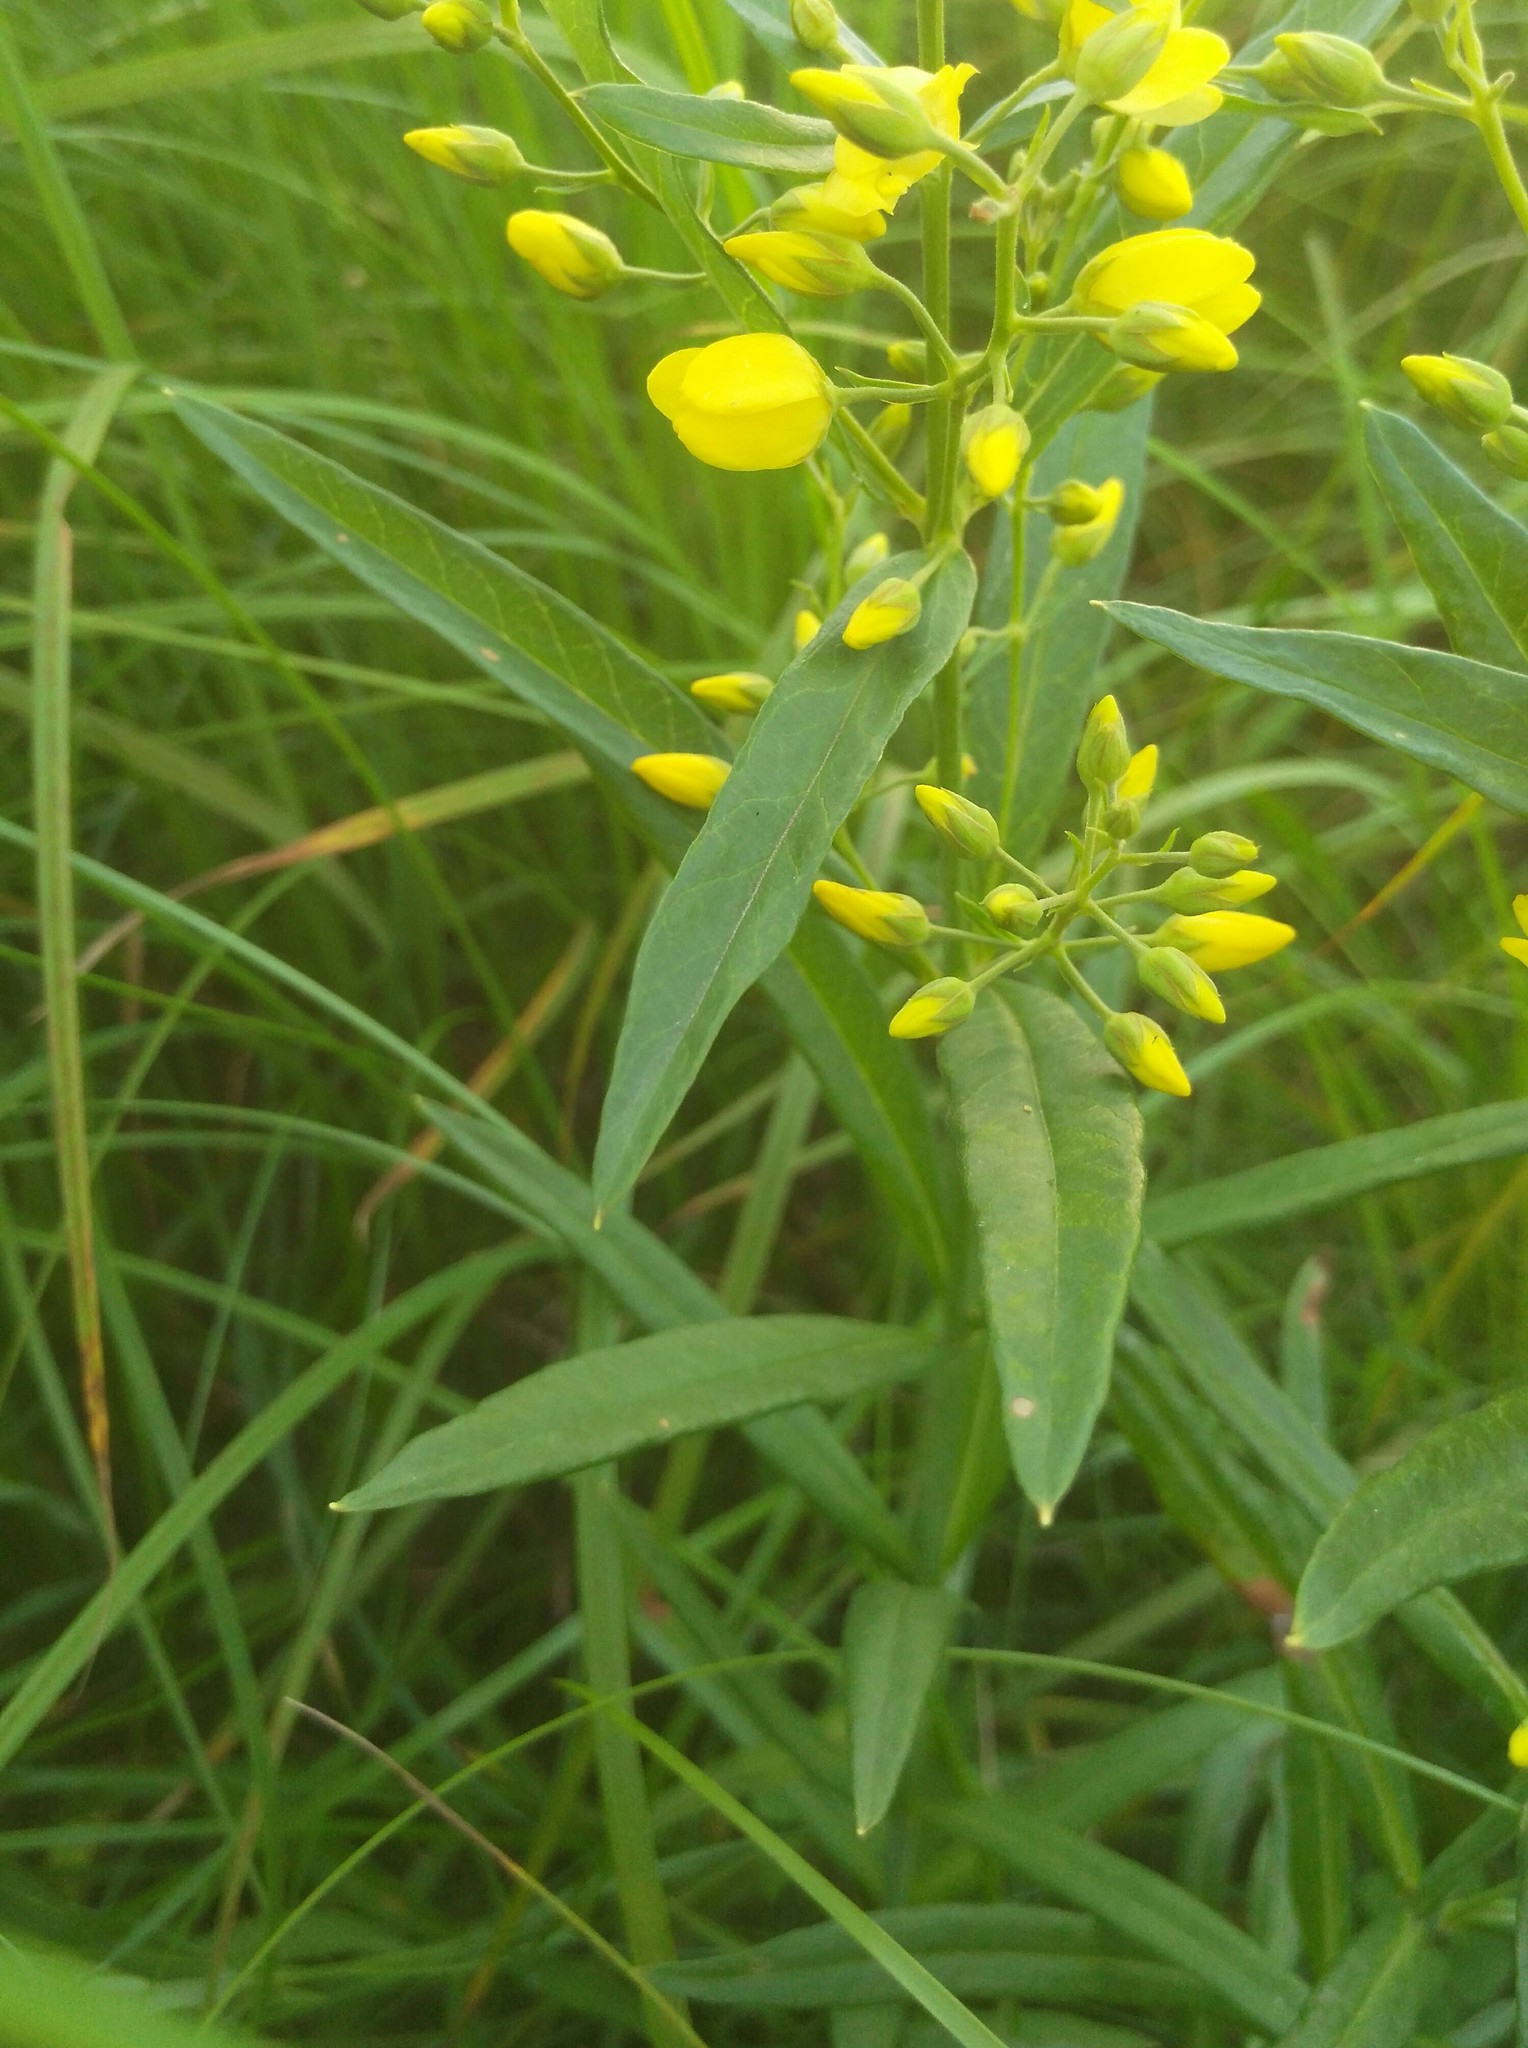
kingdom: Plantae
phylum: Tracheophyta
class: Magnoliopsida
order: Ericales
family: Primulaceae
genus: Lysimachia
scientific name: Lysimachia davurica
